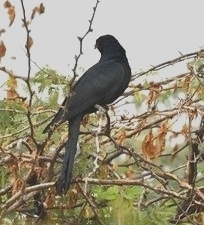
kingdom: Animalia
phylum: Chordata
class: Aves
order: Cuculiformes
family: Cuculidae
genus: Eudynamys
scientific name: Eudynamys scolopaceus
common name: Asian koel
